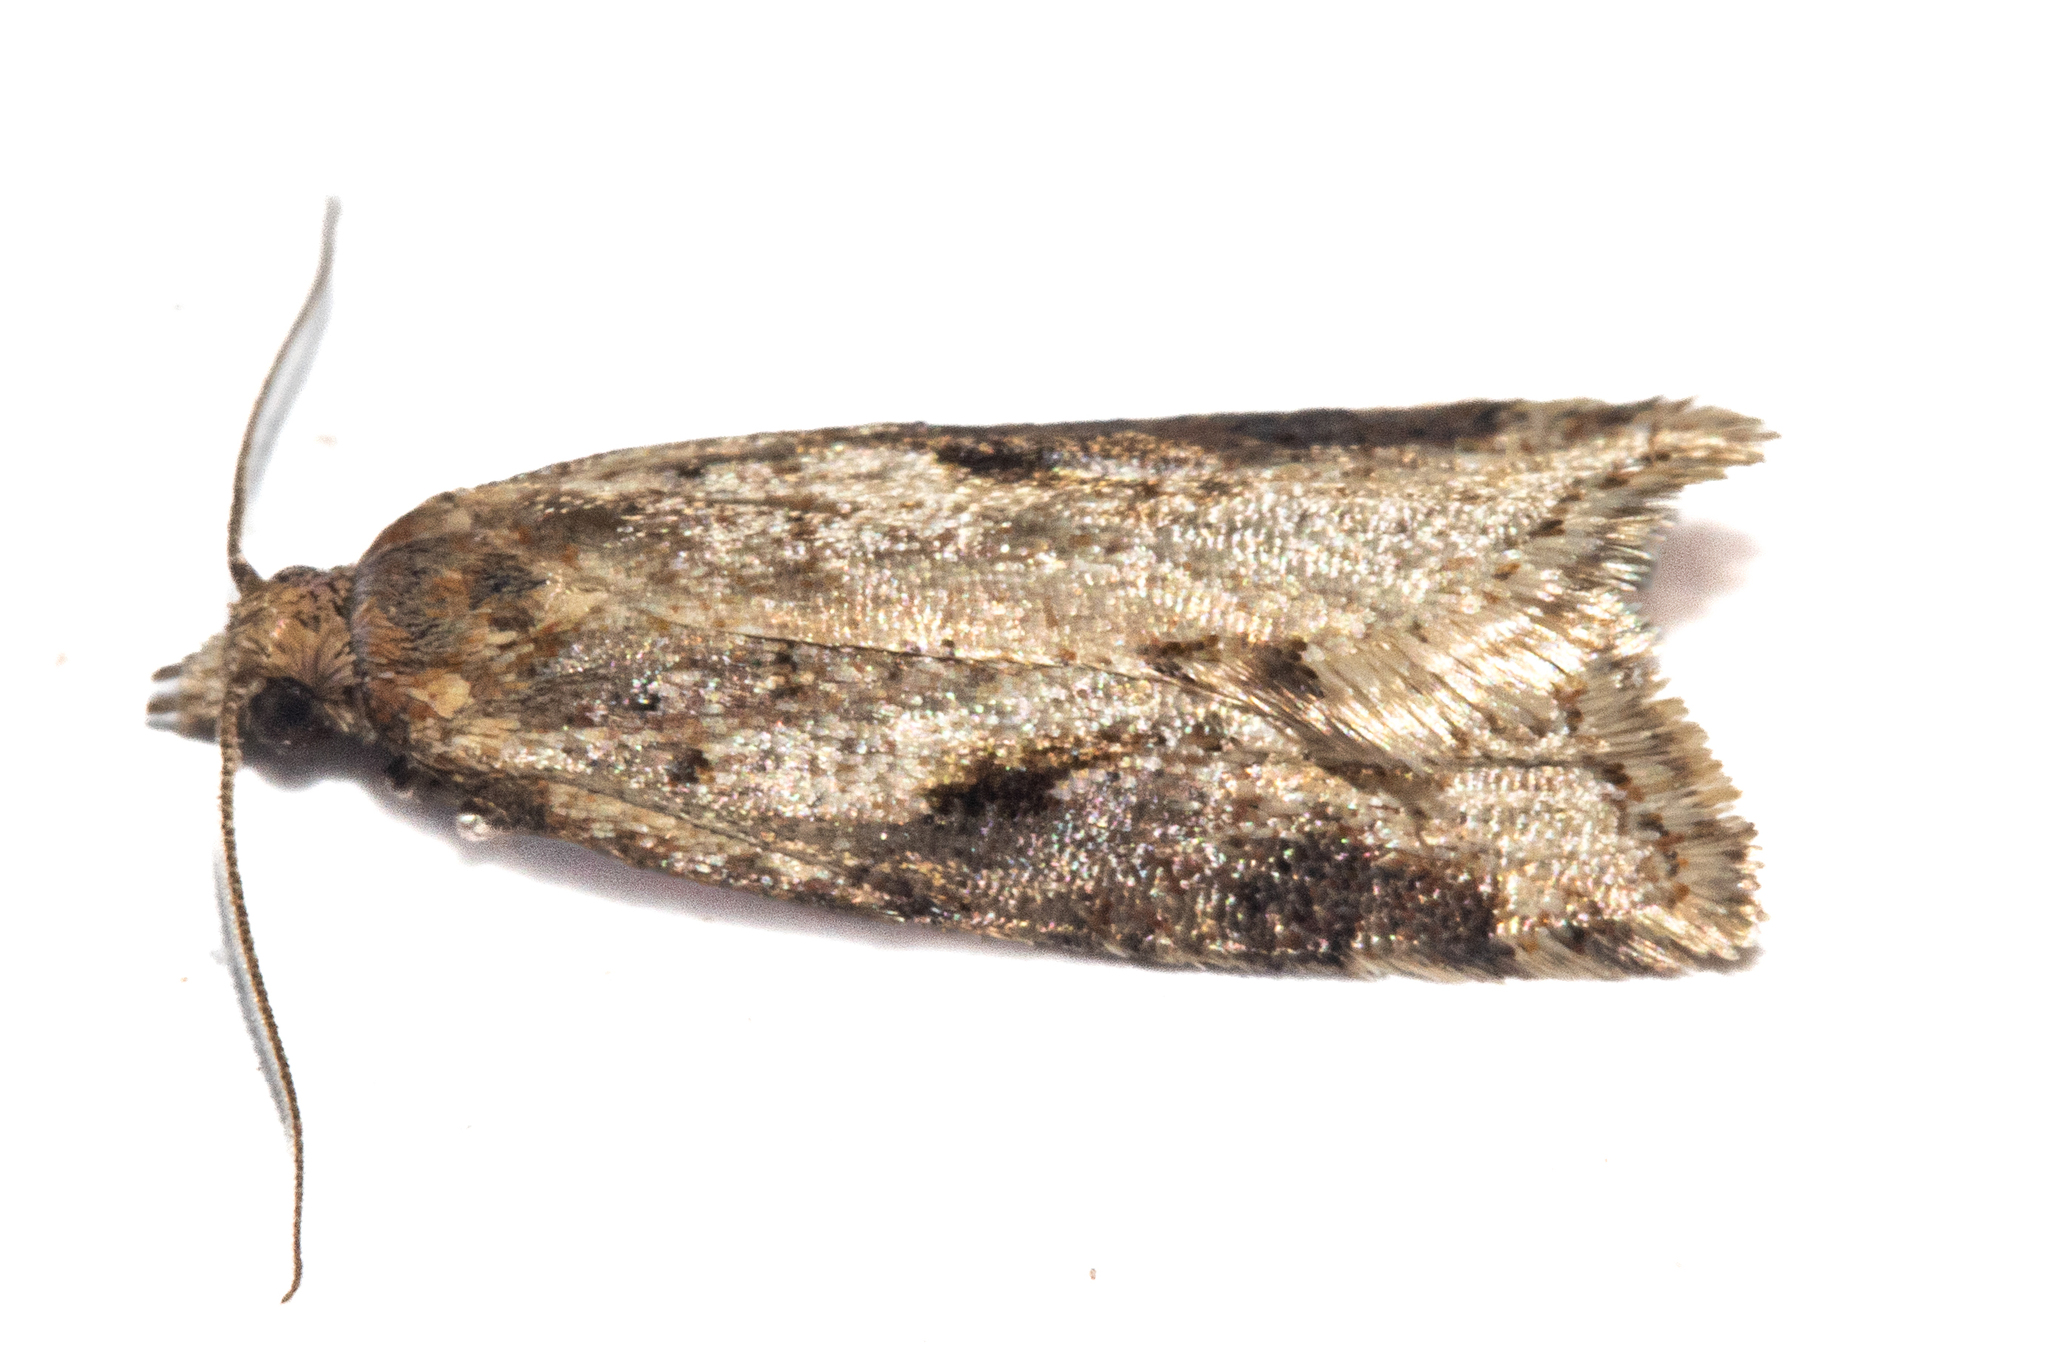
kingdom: Animalia
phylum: Arthropoda
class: Insecta
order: Lepidoptera
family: Tortricidae
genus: Capua
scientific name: Capua semiferana
